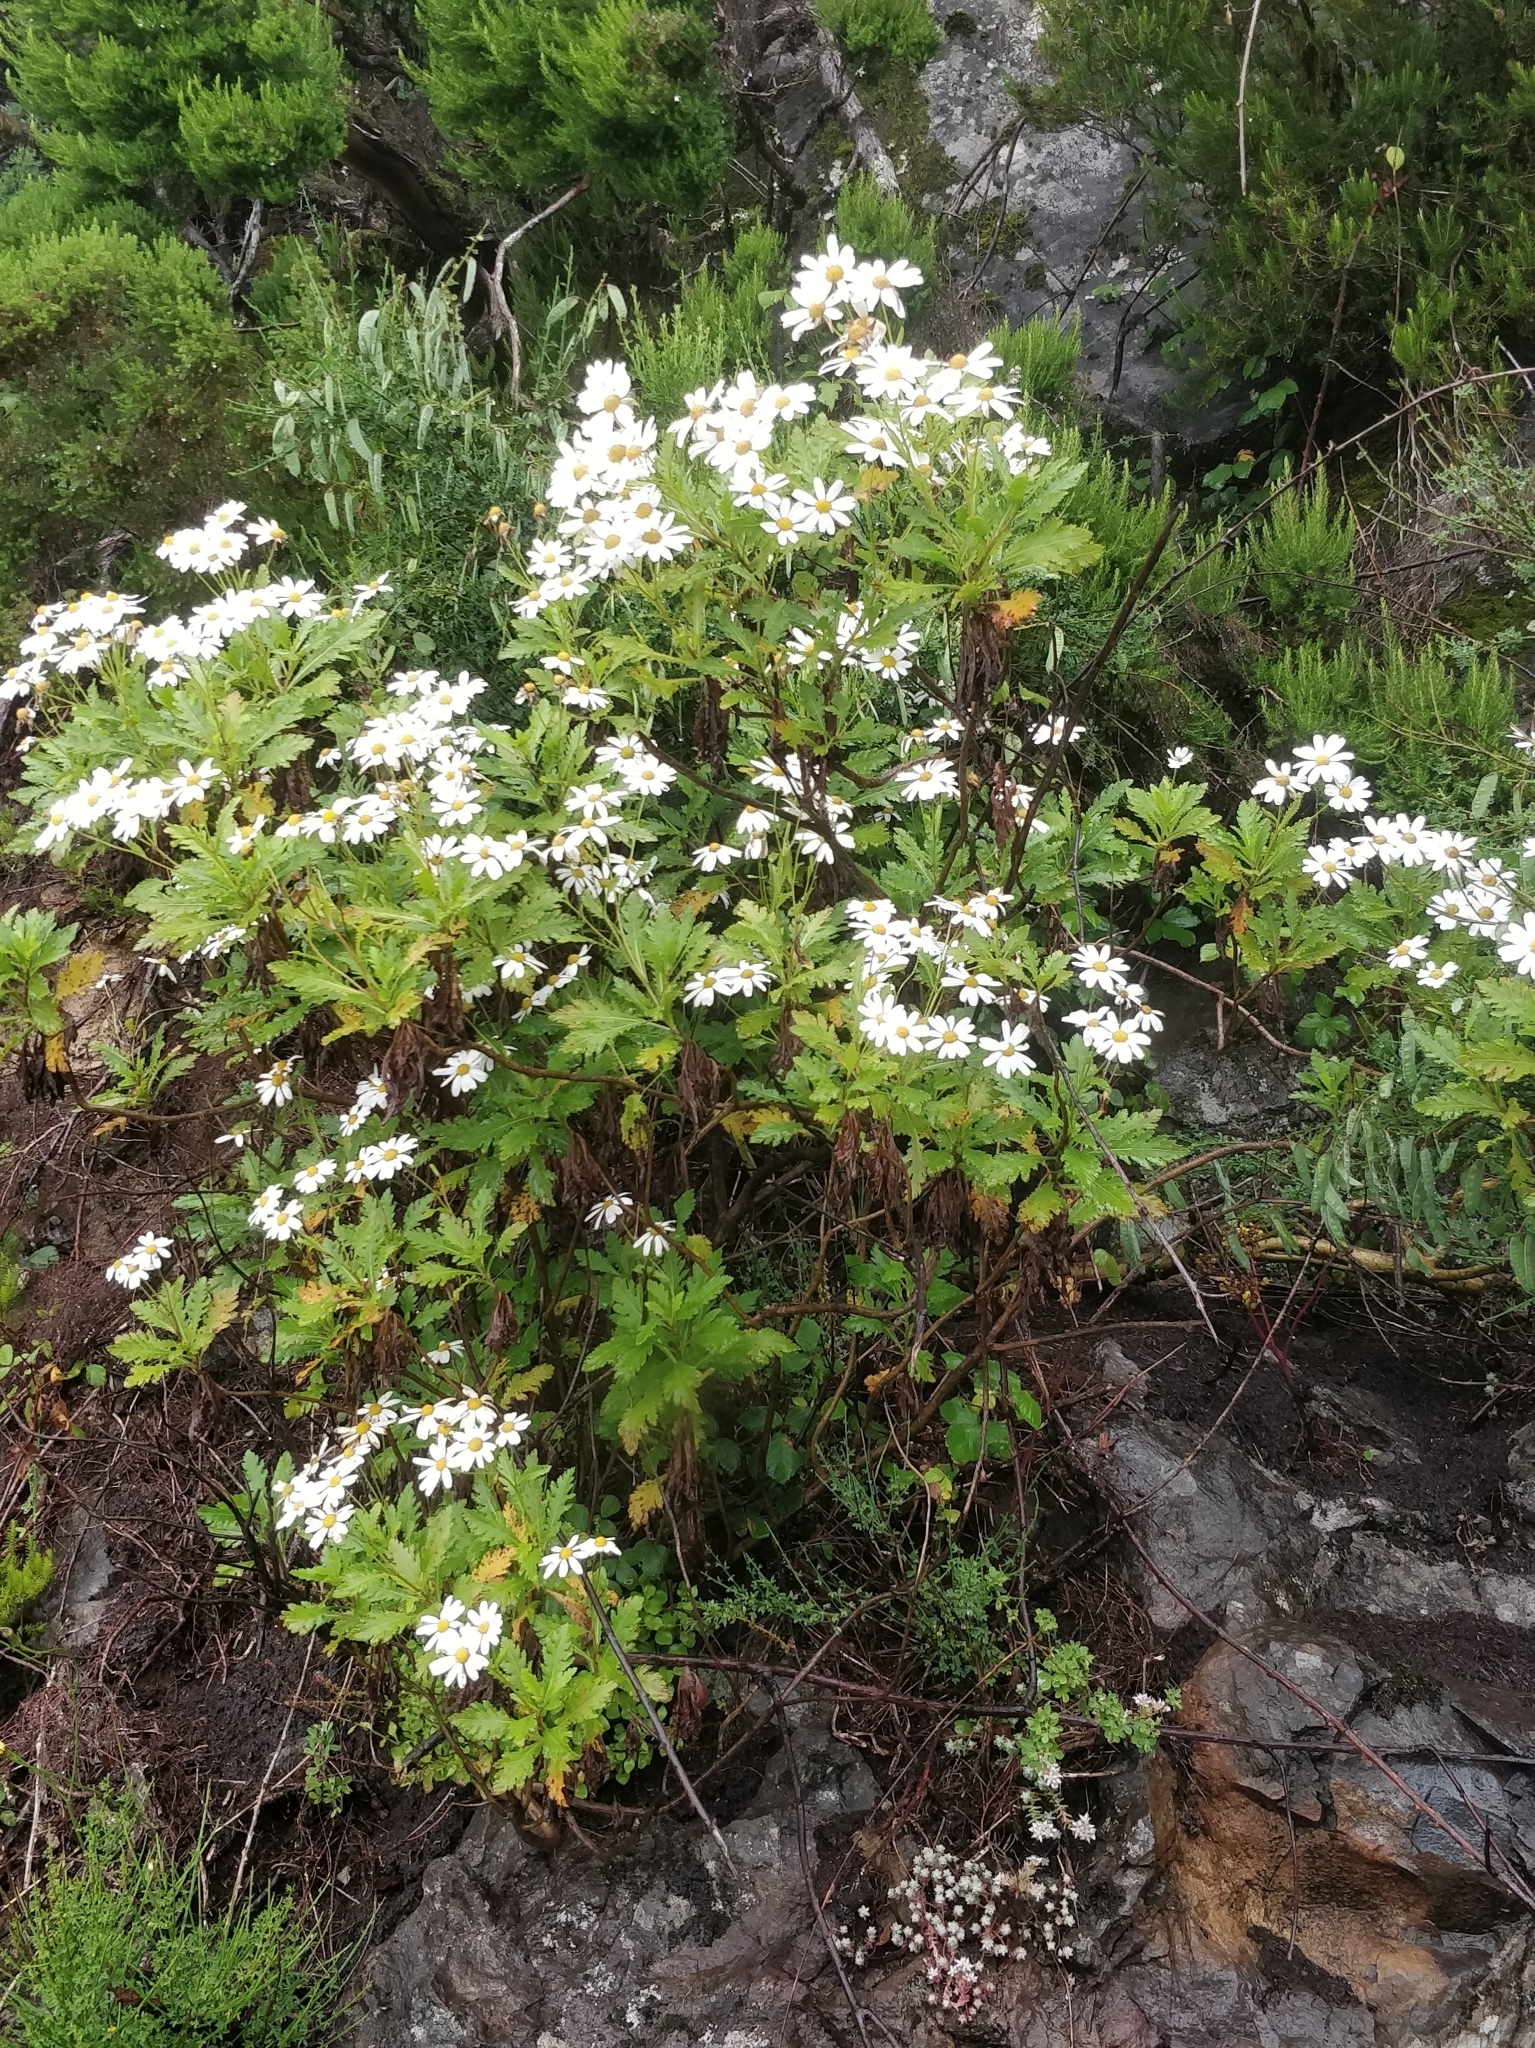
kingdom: Plantae
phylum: Tracheophyta
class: Magnoliopsida
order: Asterales
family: Asteraceae
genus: Argyranthemum
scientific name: Argyranthemum pinnatifidum
